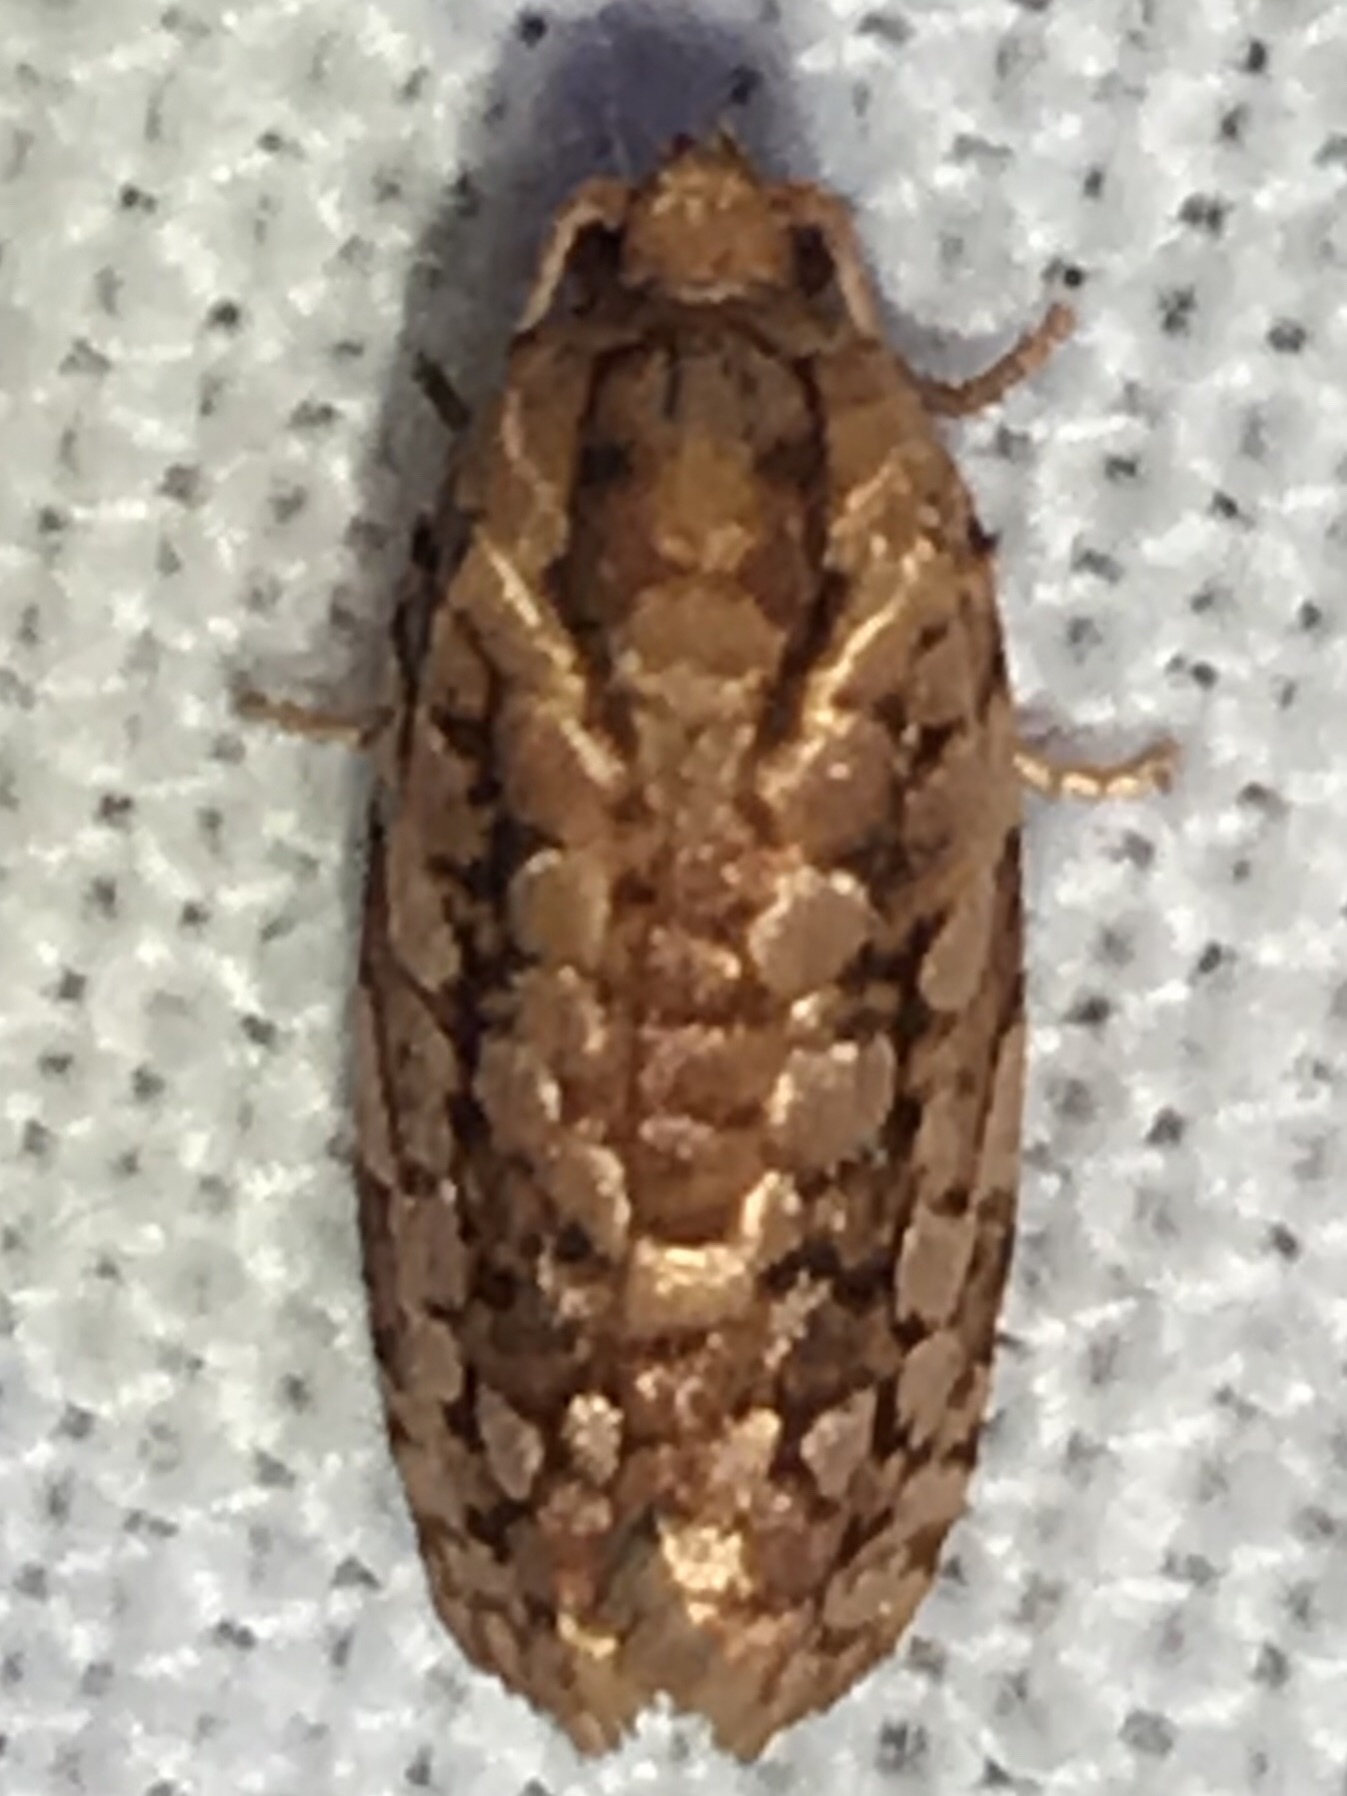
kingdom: Animalia
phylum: Arthropoda
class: Insecta
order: Lepidoptera
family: Tortricidae
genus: Choristoneura
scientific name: Choristoneura houstonana
